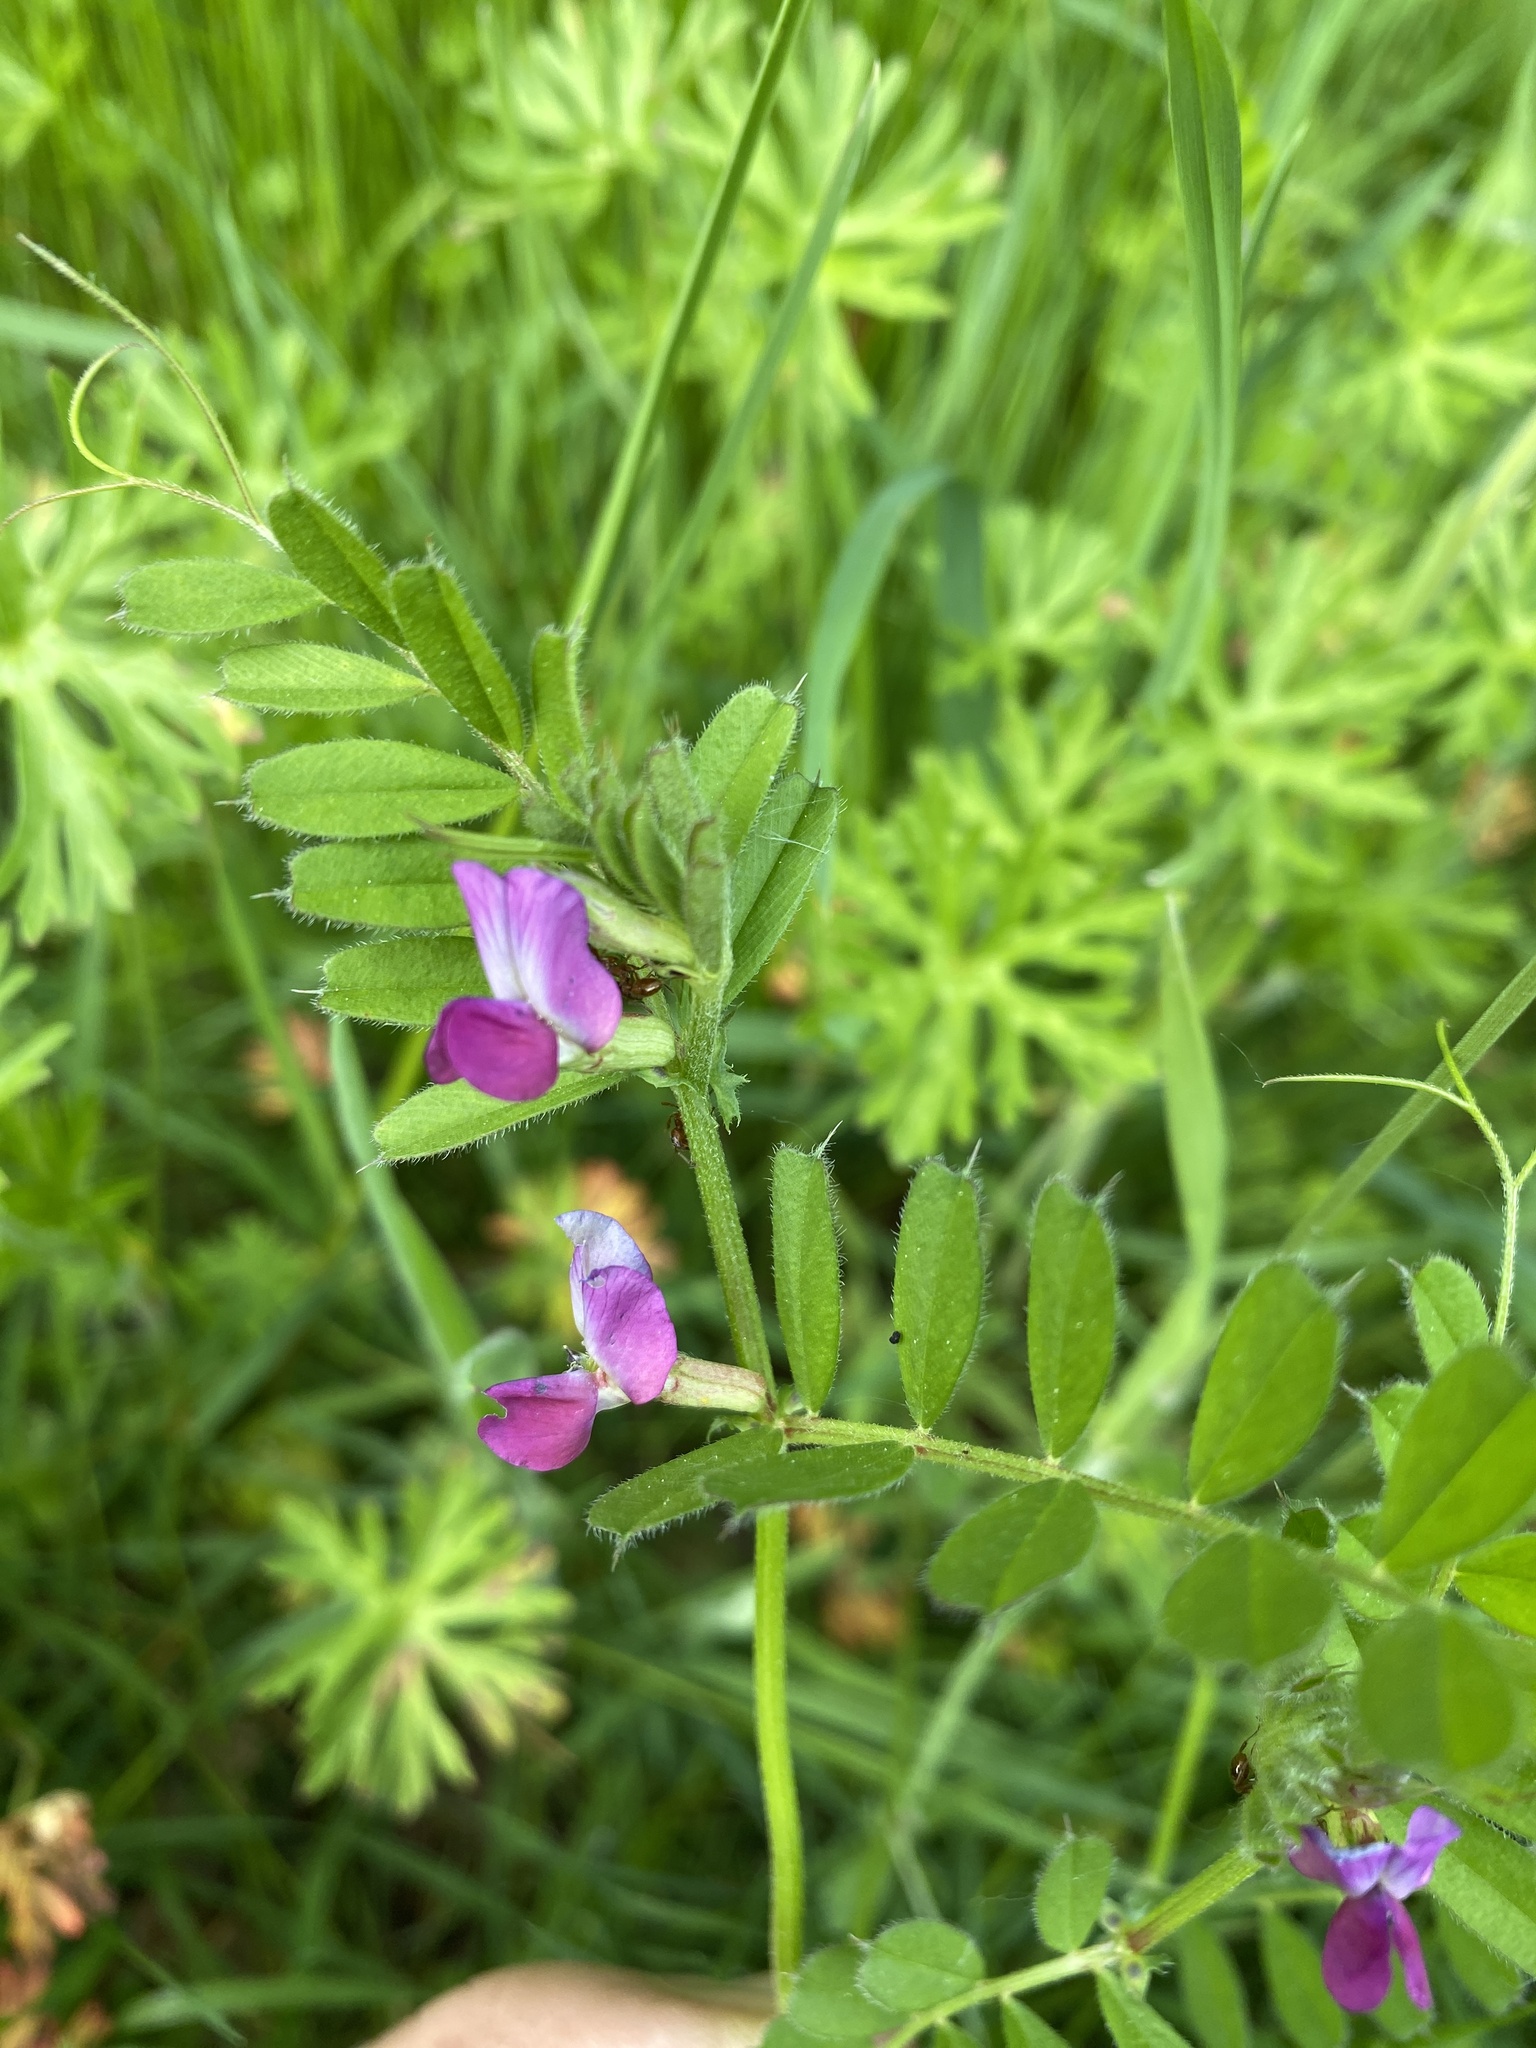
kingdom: Plantae
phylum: Tracheophyta
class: Magnoliopsida
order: Fabales
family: Fabaceae
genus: Vicia
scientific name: Vicia sativa
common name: Garden vetch
